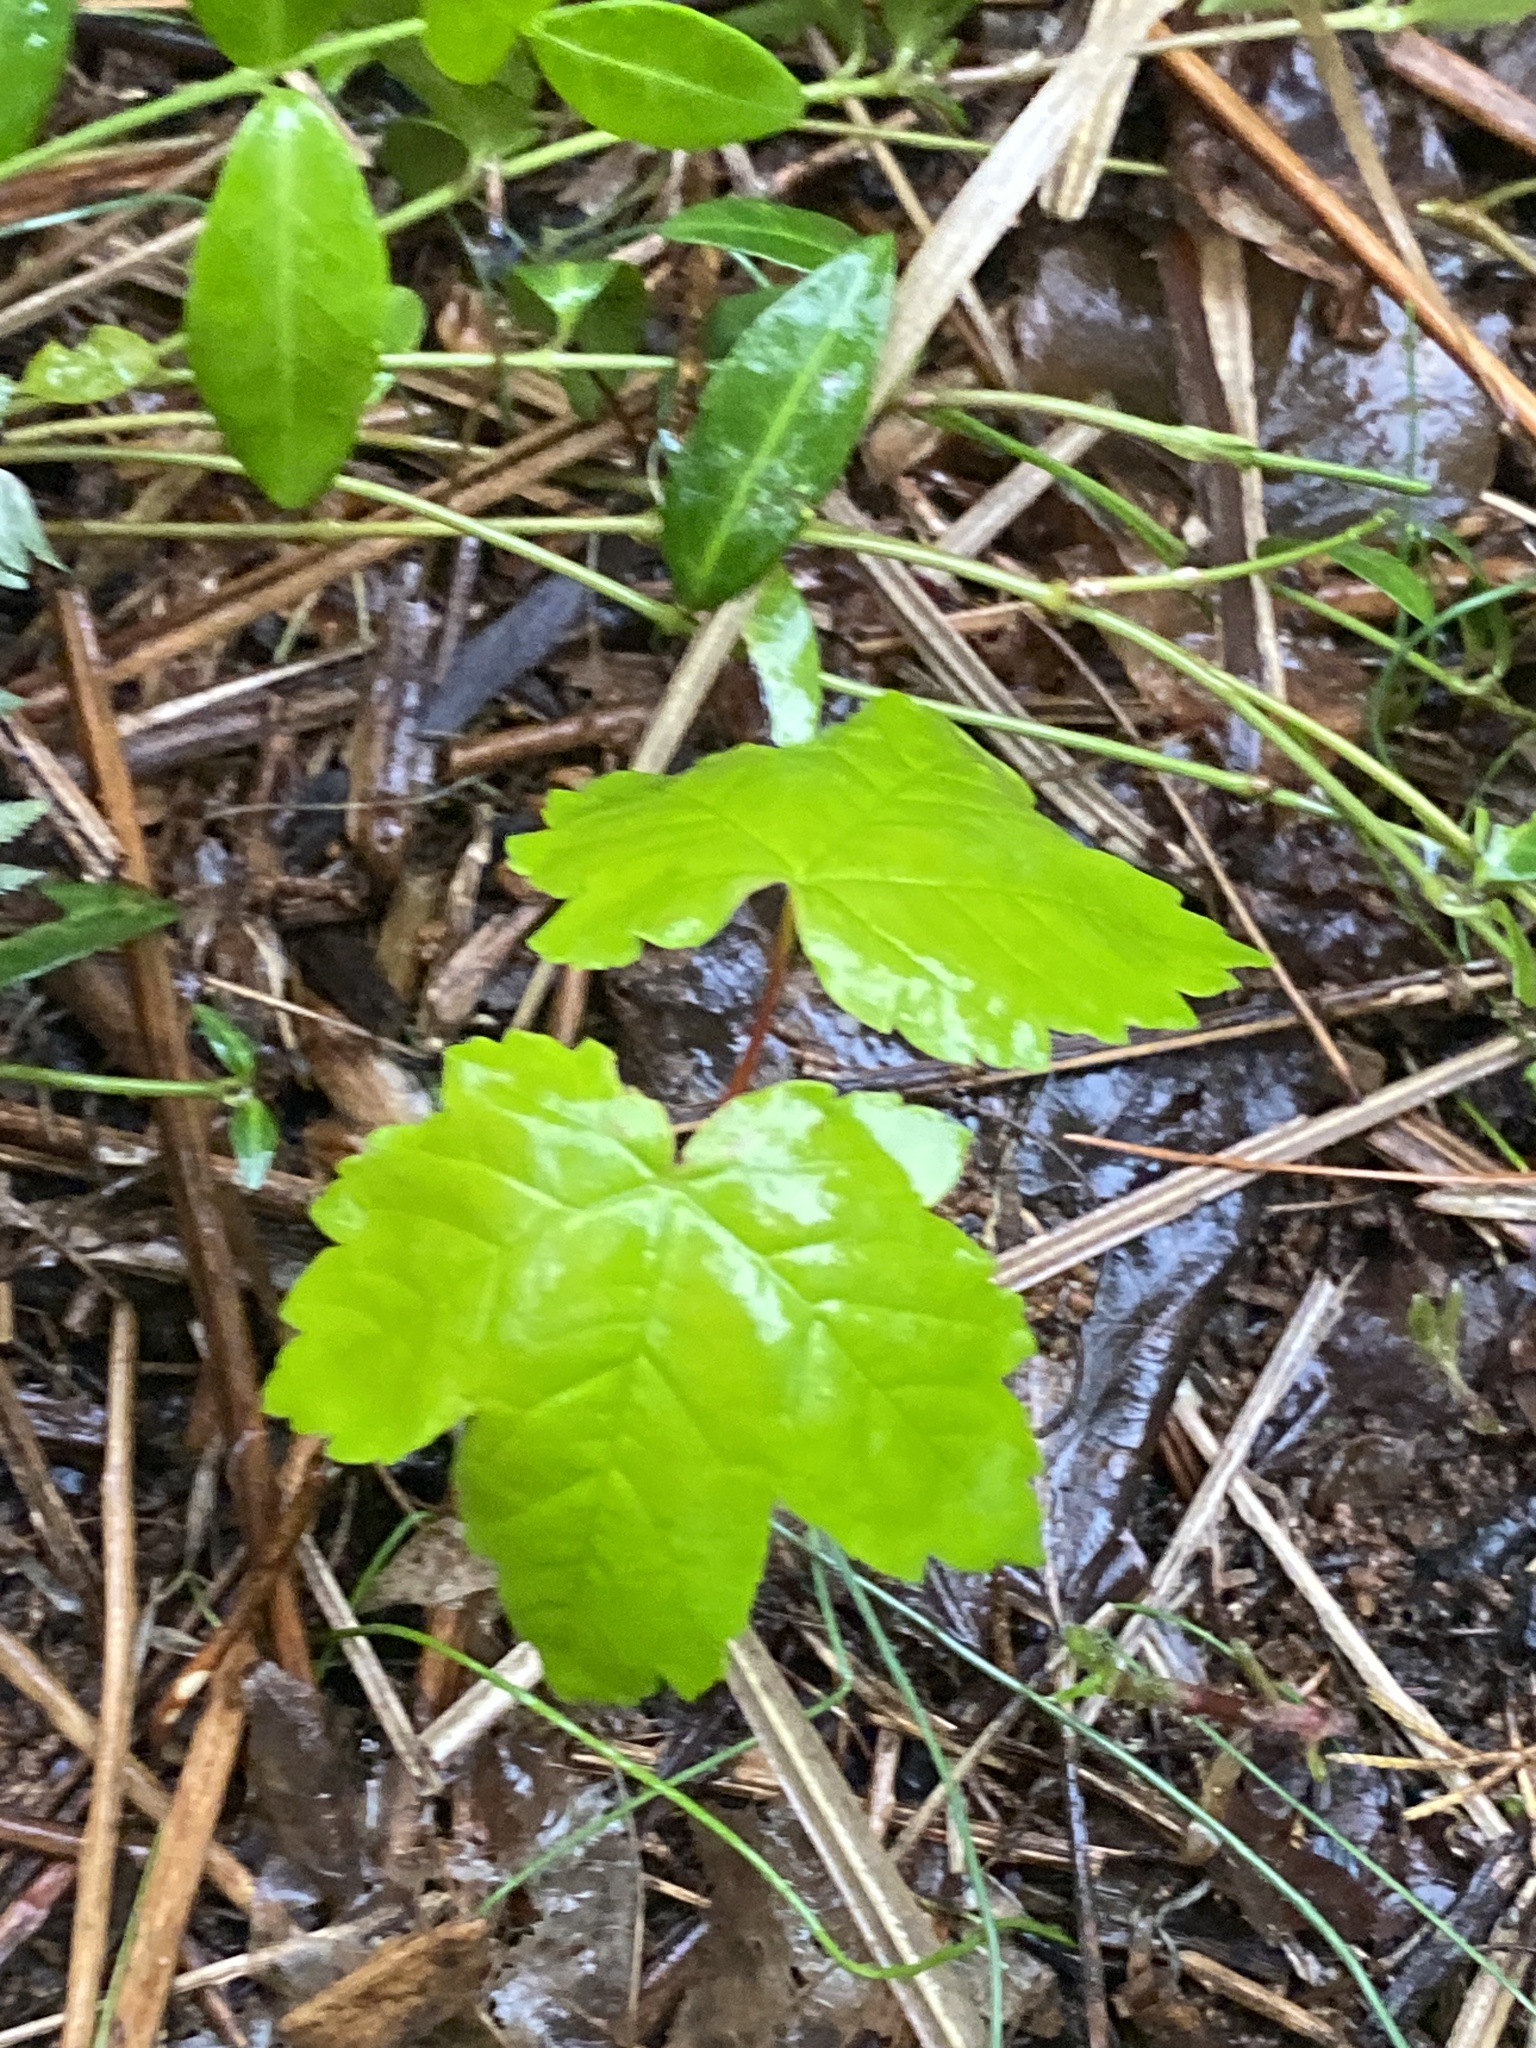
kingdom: Plantae
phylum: Tracheophyta
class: Magnoliopsida
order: Sapindales
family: Sapindaceae
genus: Acer
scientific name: Acer pseudoplatanus
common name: Sycamore
